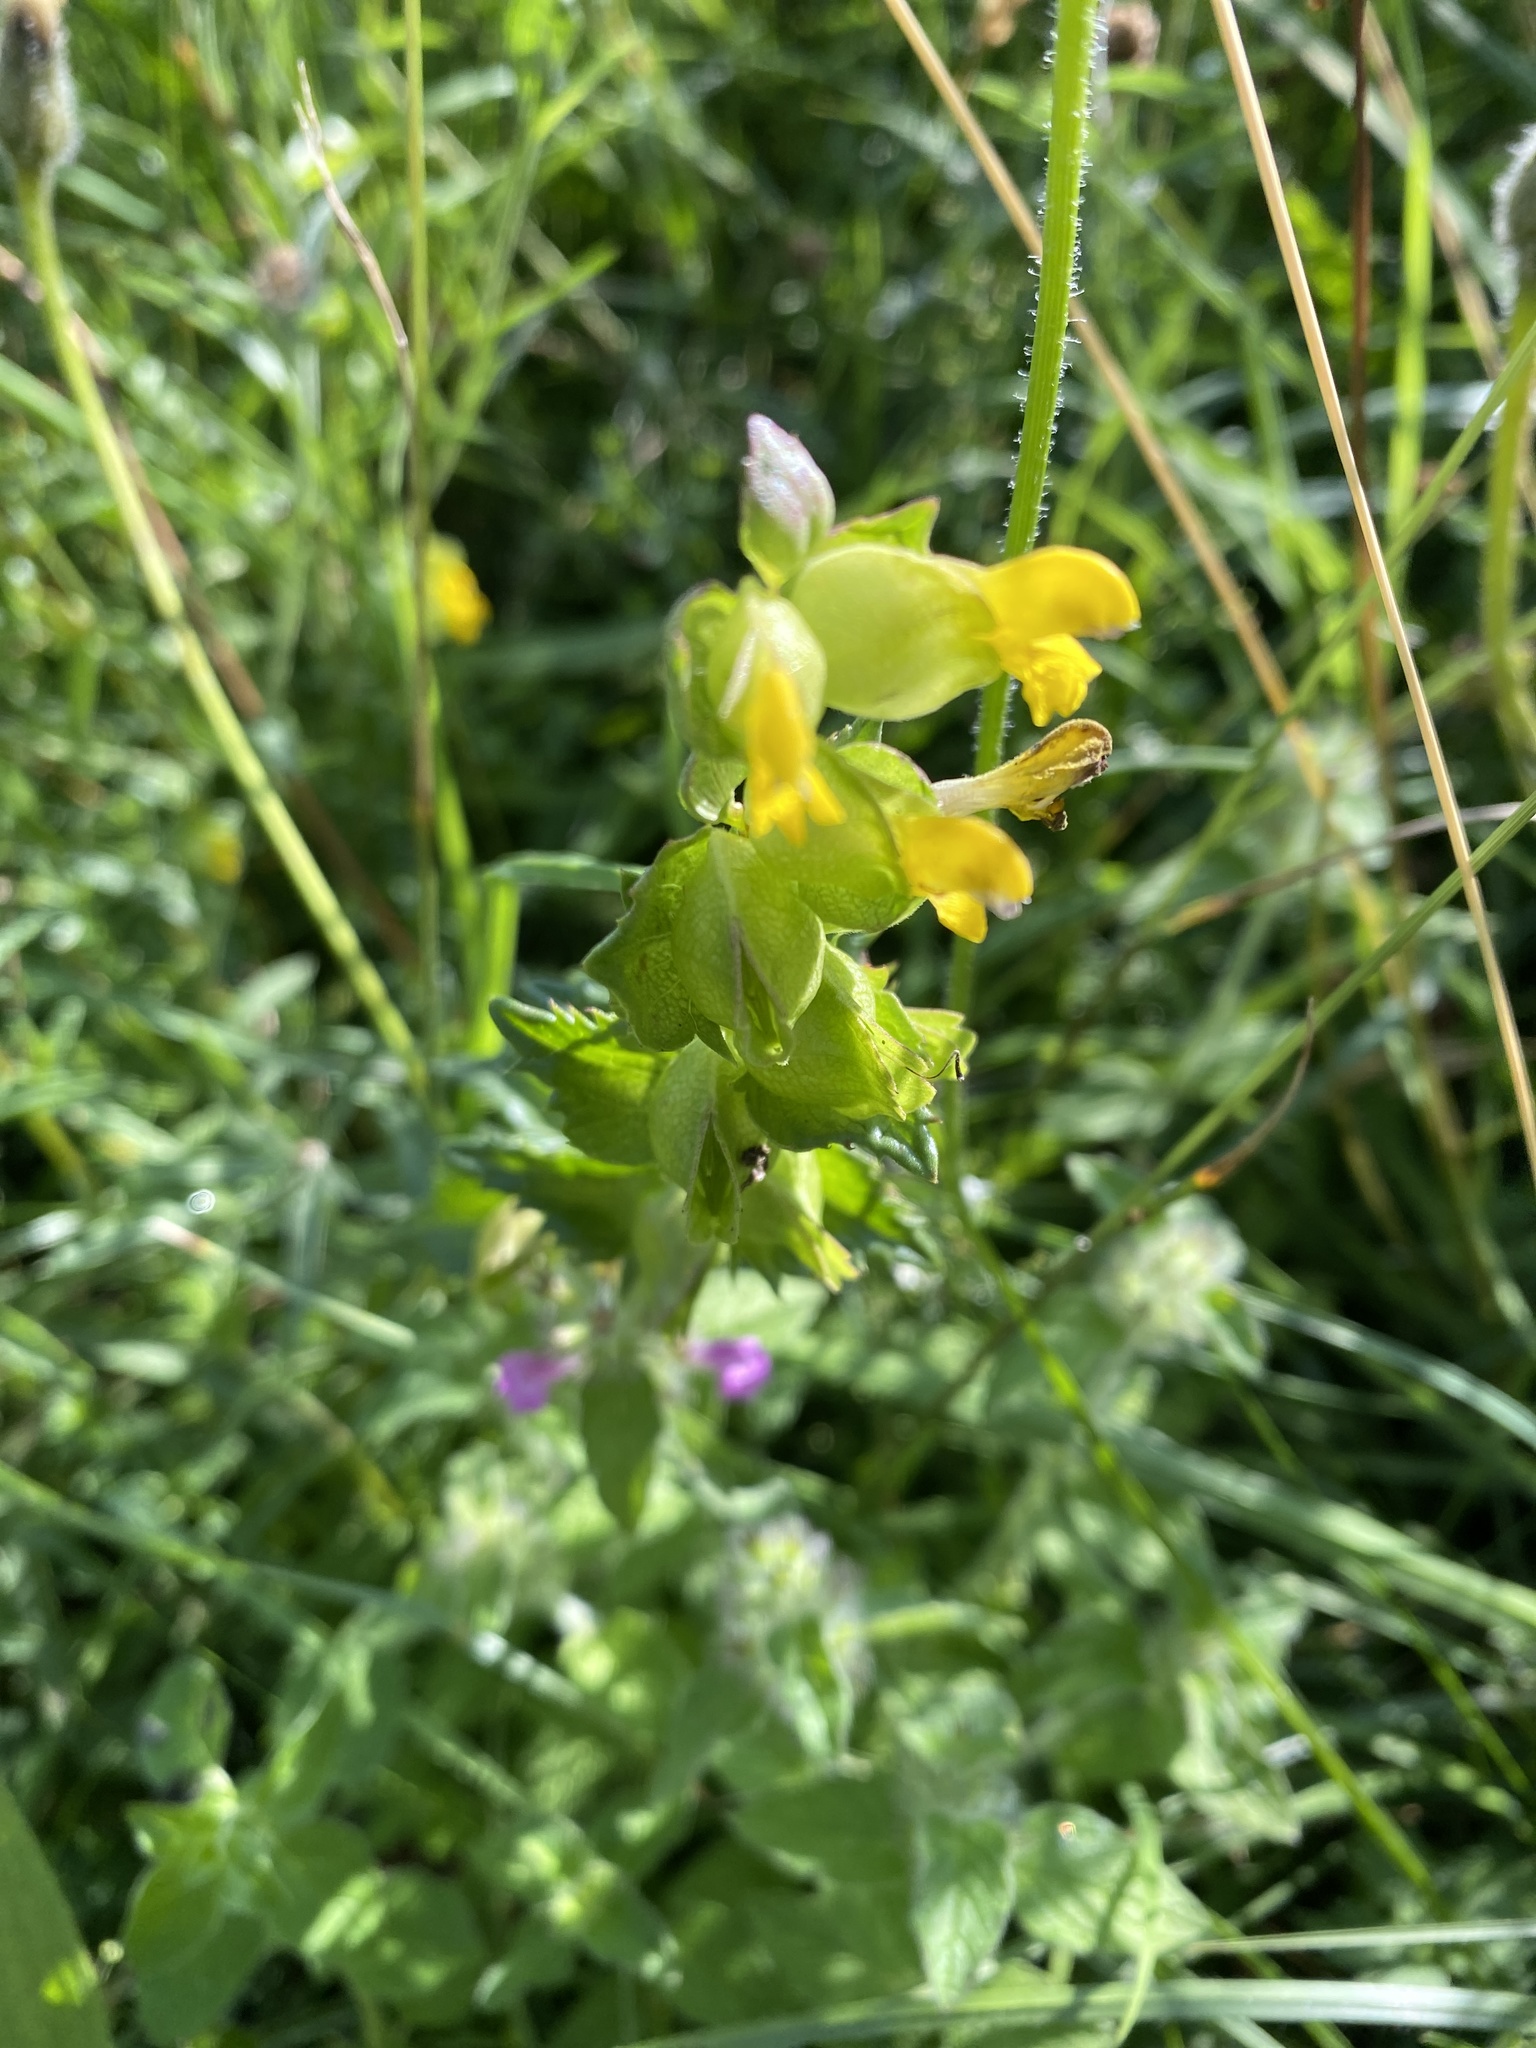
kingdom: Plantae
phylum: Tracheophyta
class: Magnoliopsida
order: Lamiales
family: Orobanchaceae
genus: Rhinanthus
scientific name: Rhinanthus minor
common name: Yellow-rattle
